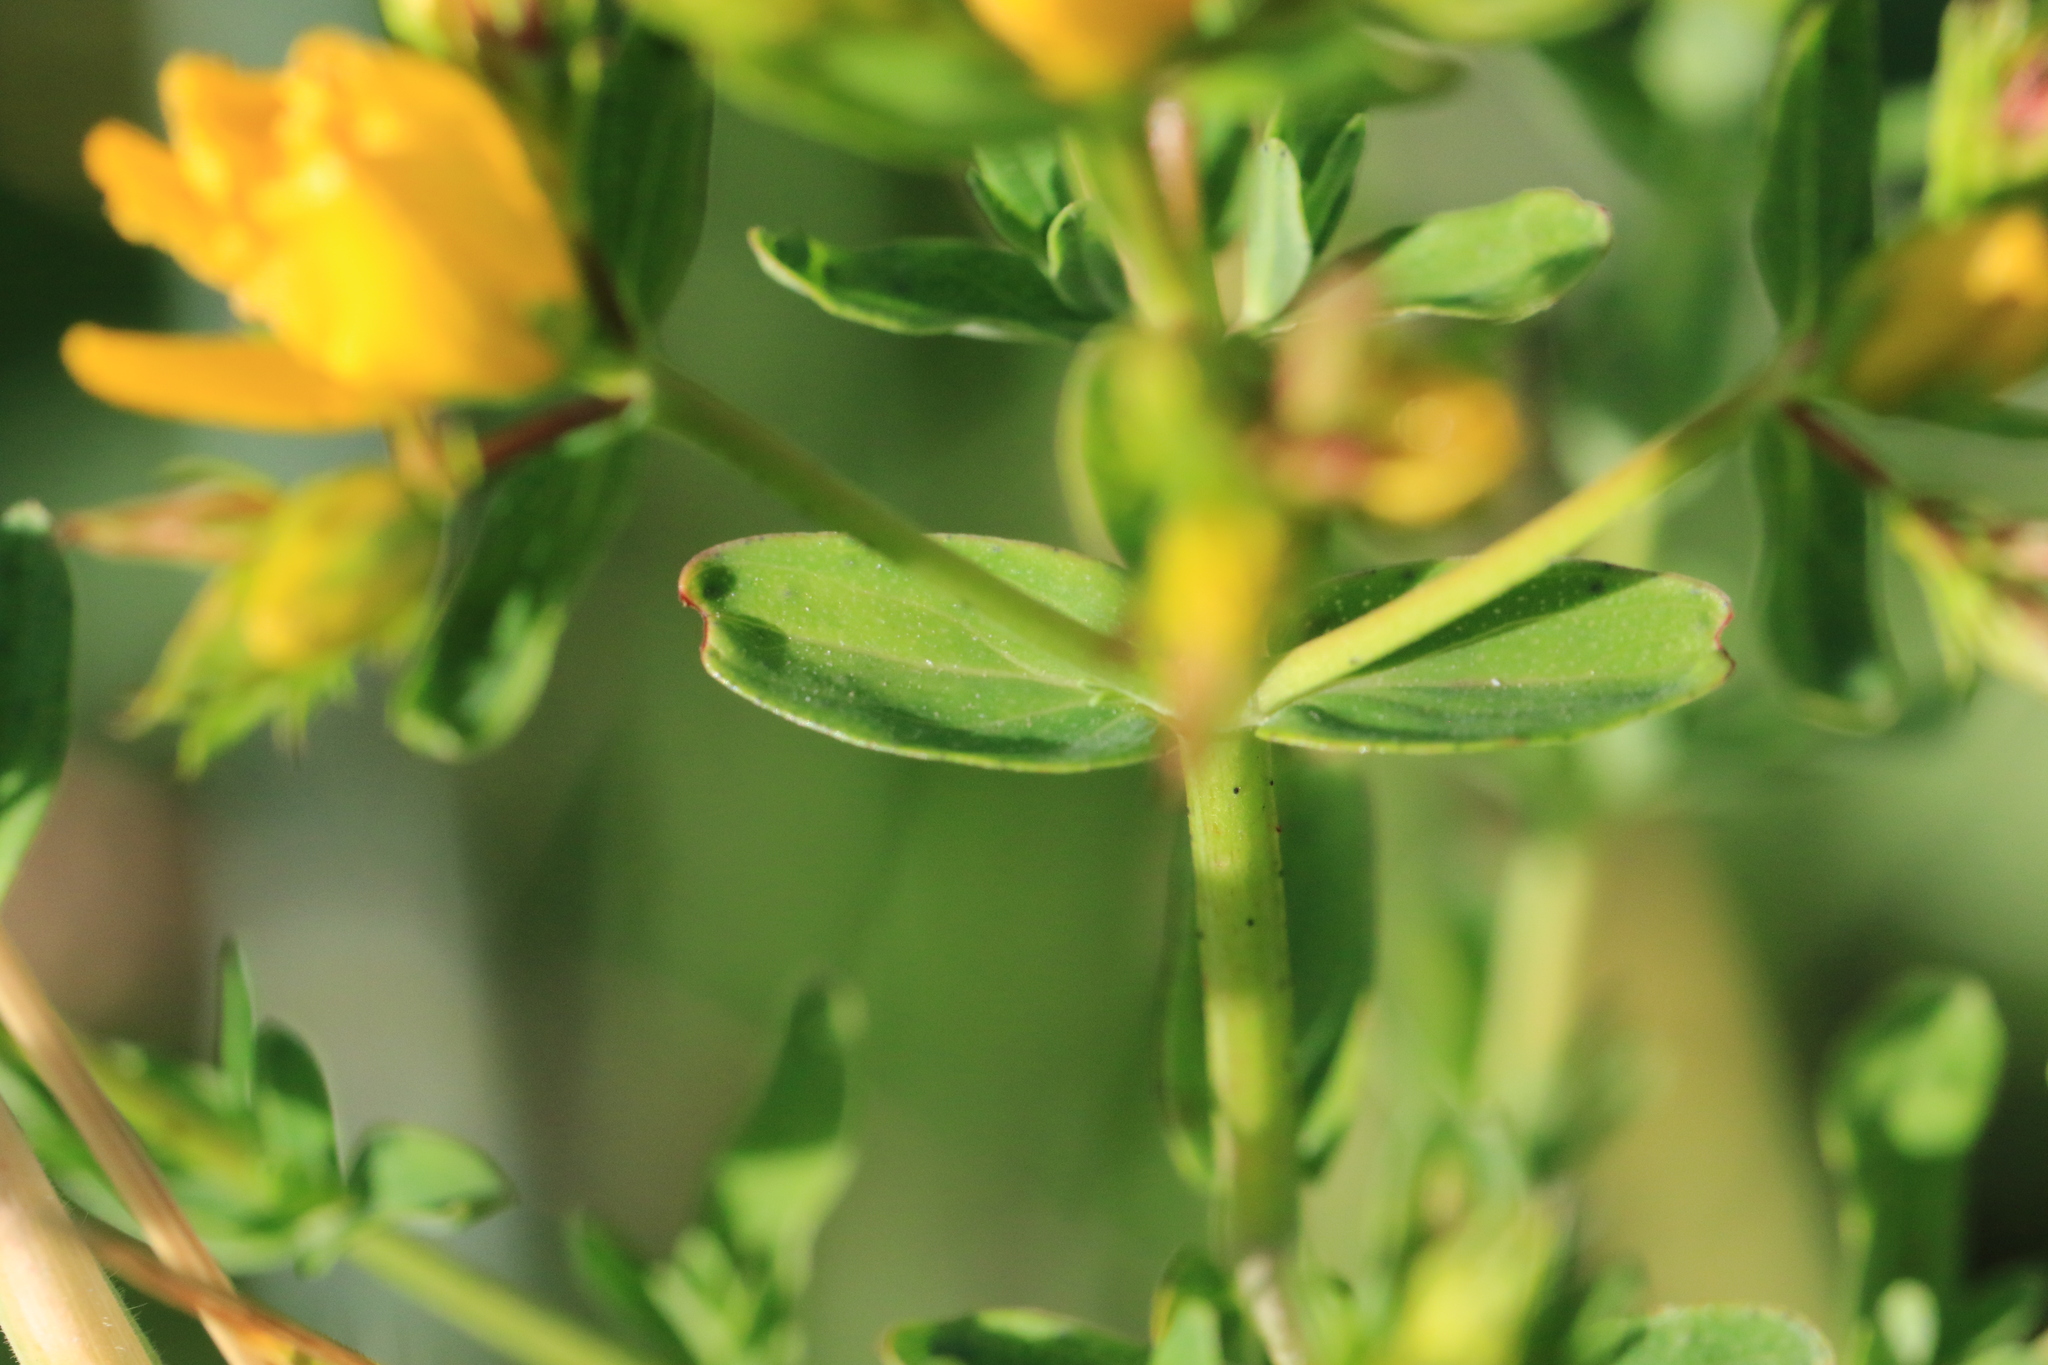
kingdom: Plantae
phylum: Tracheophyta
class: Magnoliopsida
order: Malpighiales
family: Hypericaceae
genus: Hypericum
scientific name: Hypericum perforatum
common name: Common st. johnswort
